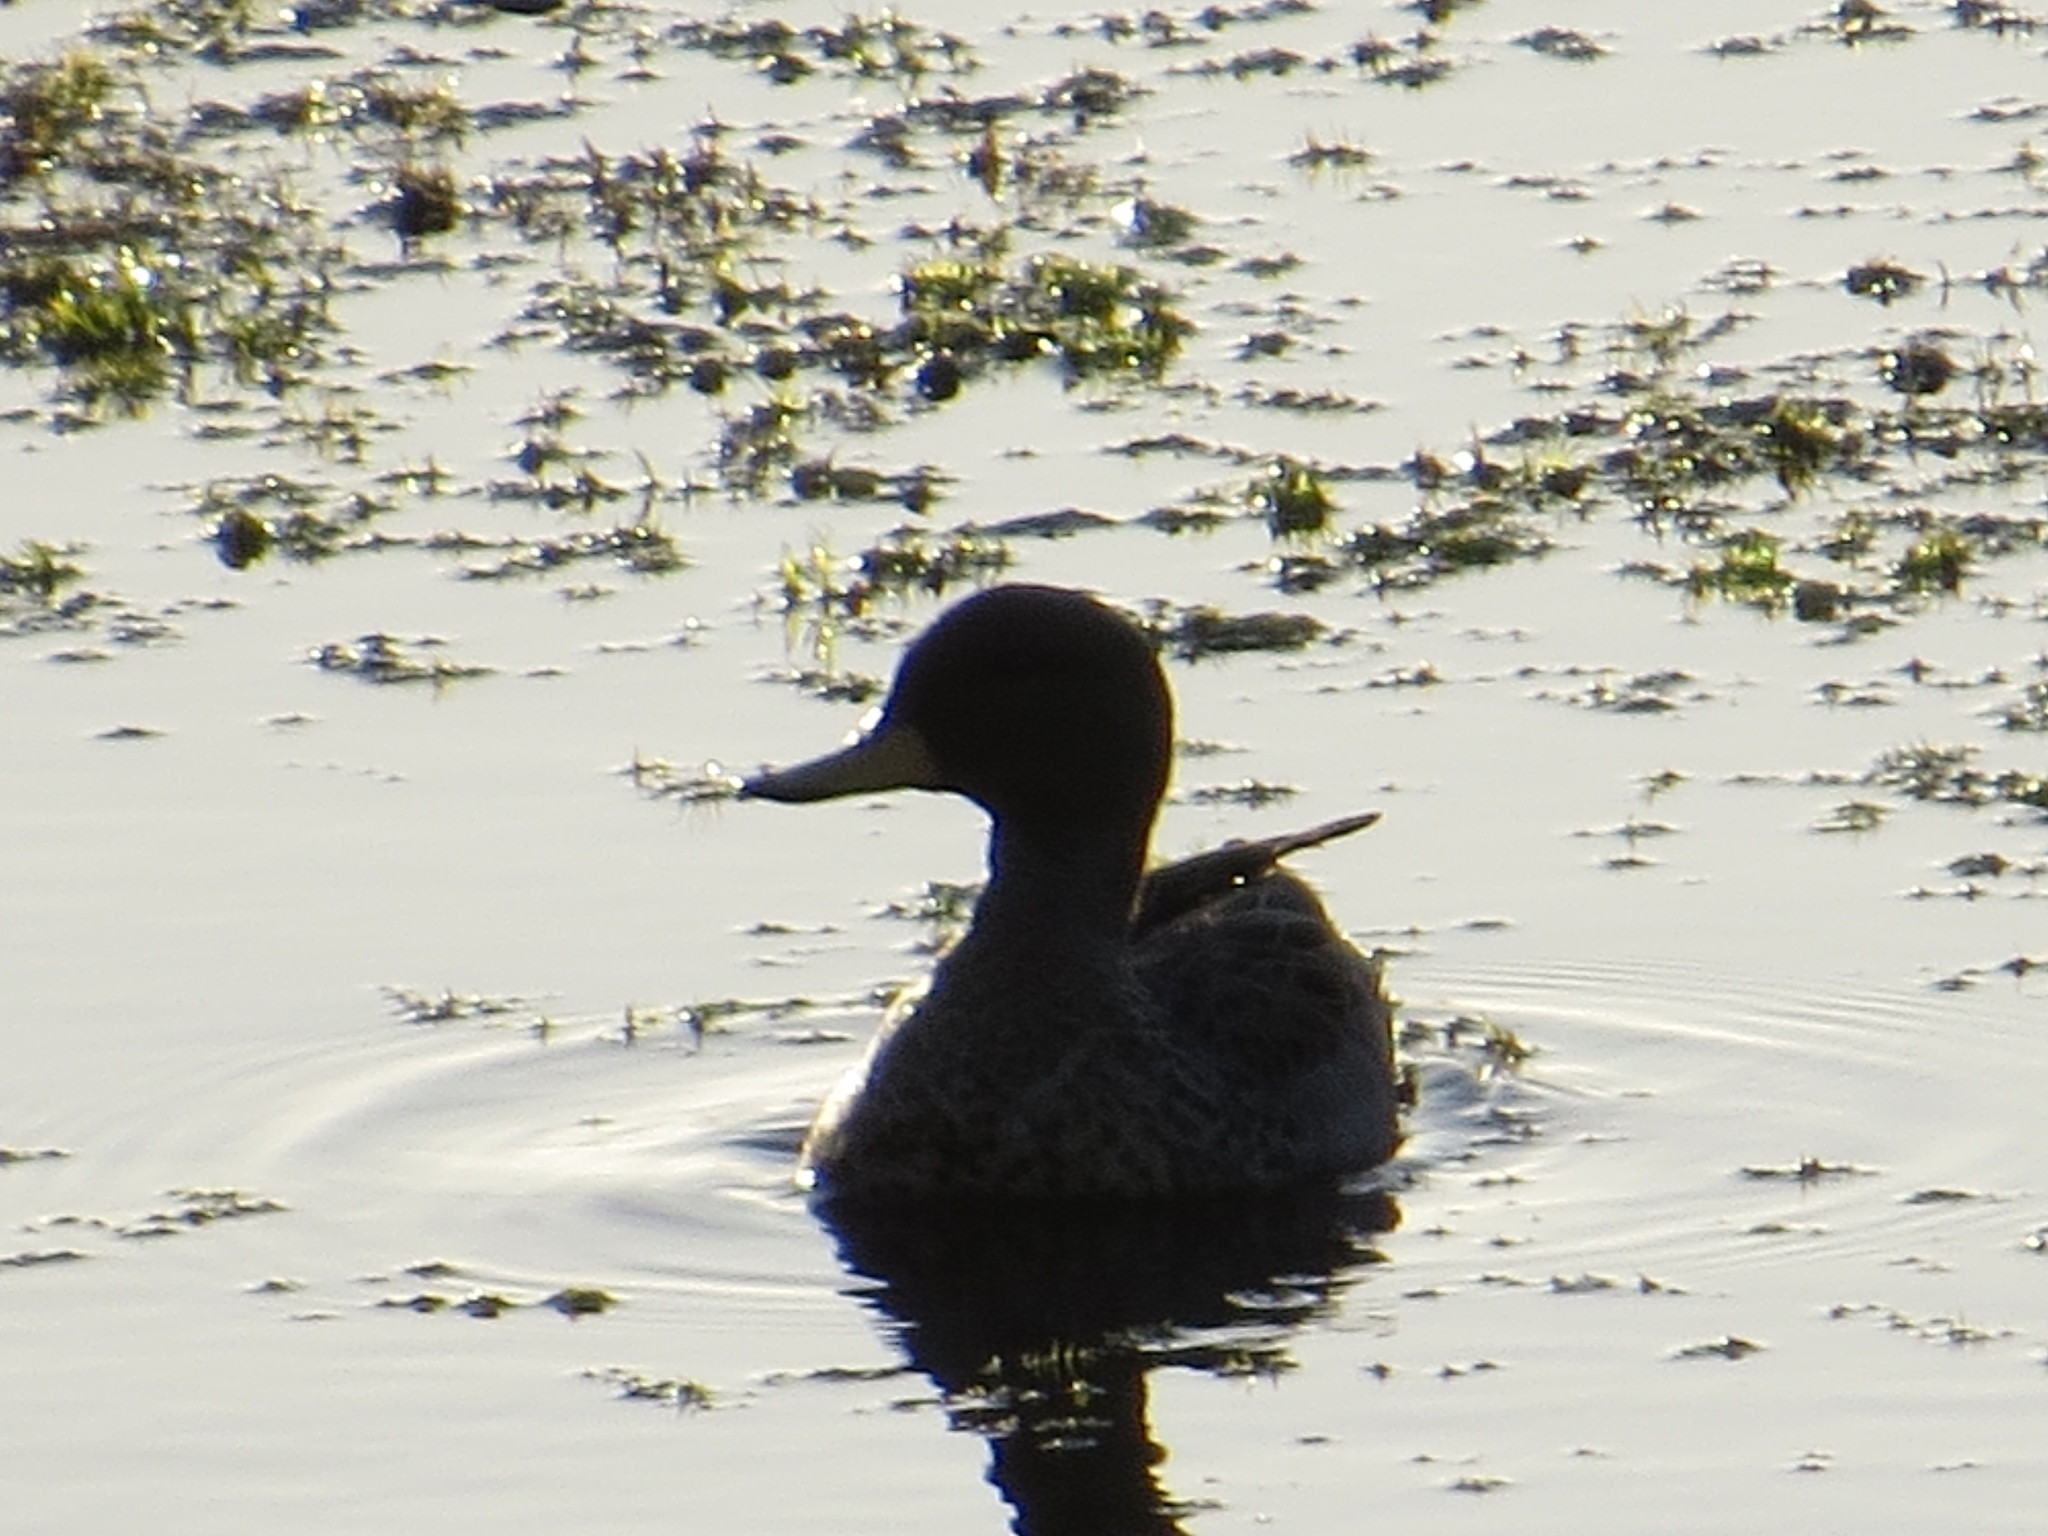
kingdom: Animalia
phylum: Chordata
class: Aves
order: Anseriformes
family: Anatidae
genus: Anas
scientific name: Anas flavirostris
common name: Yellow-billed teal
